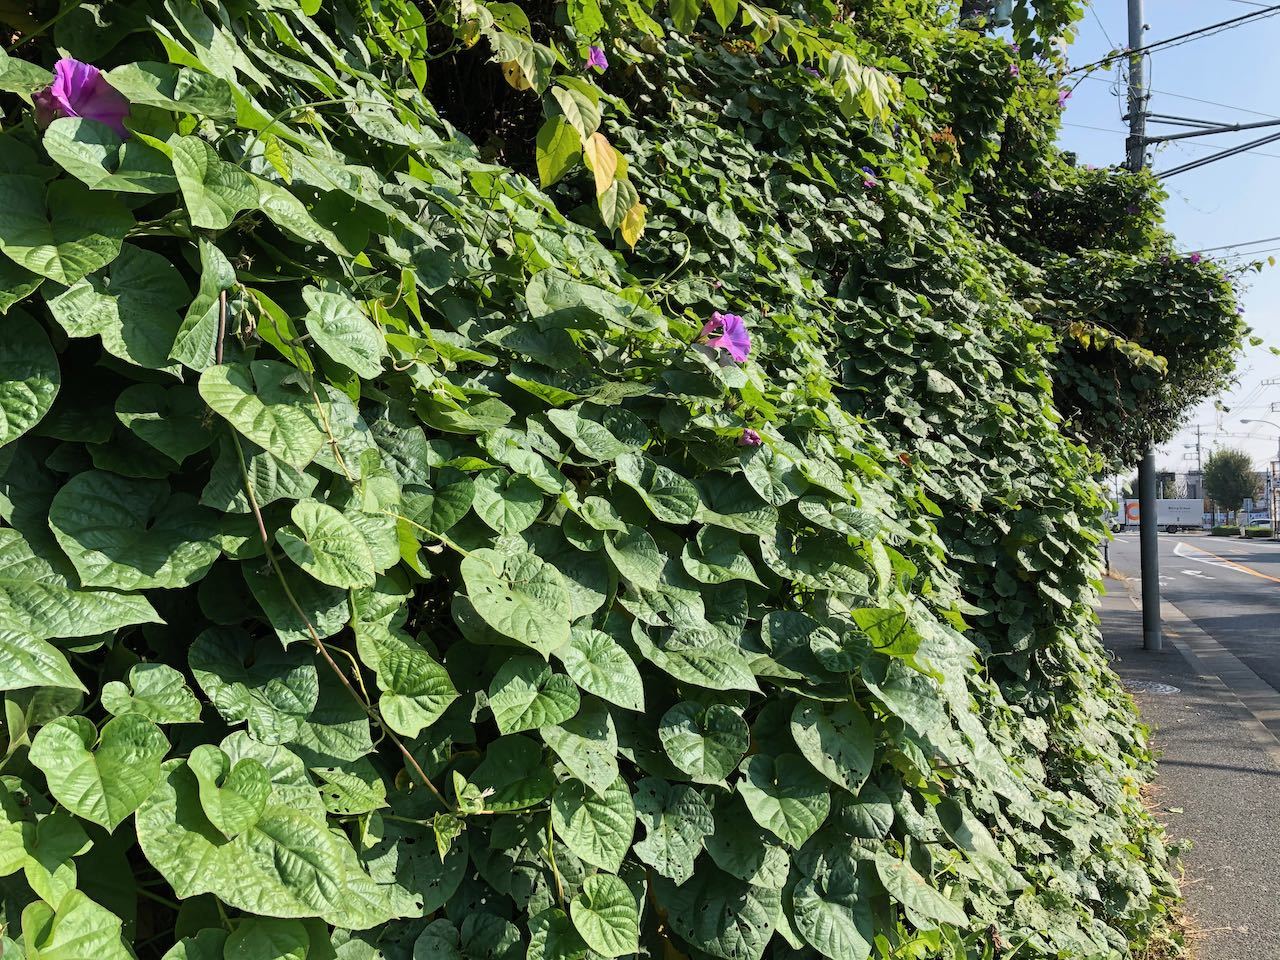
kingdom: Plantae
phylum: Tracheophyta
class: Magnoliopsida
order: Solanales
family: Convolvulaceae
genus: Ipomoea
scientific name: Ipomoea indica
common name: Blue dawnflower
